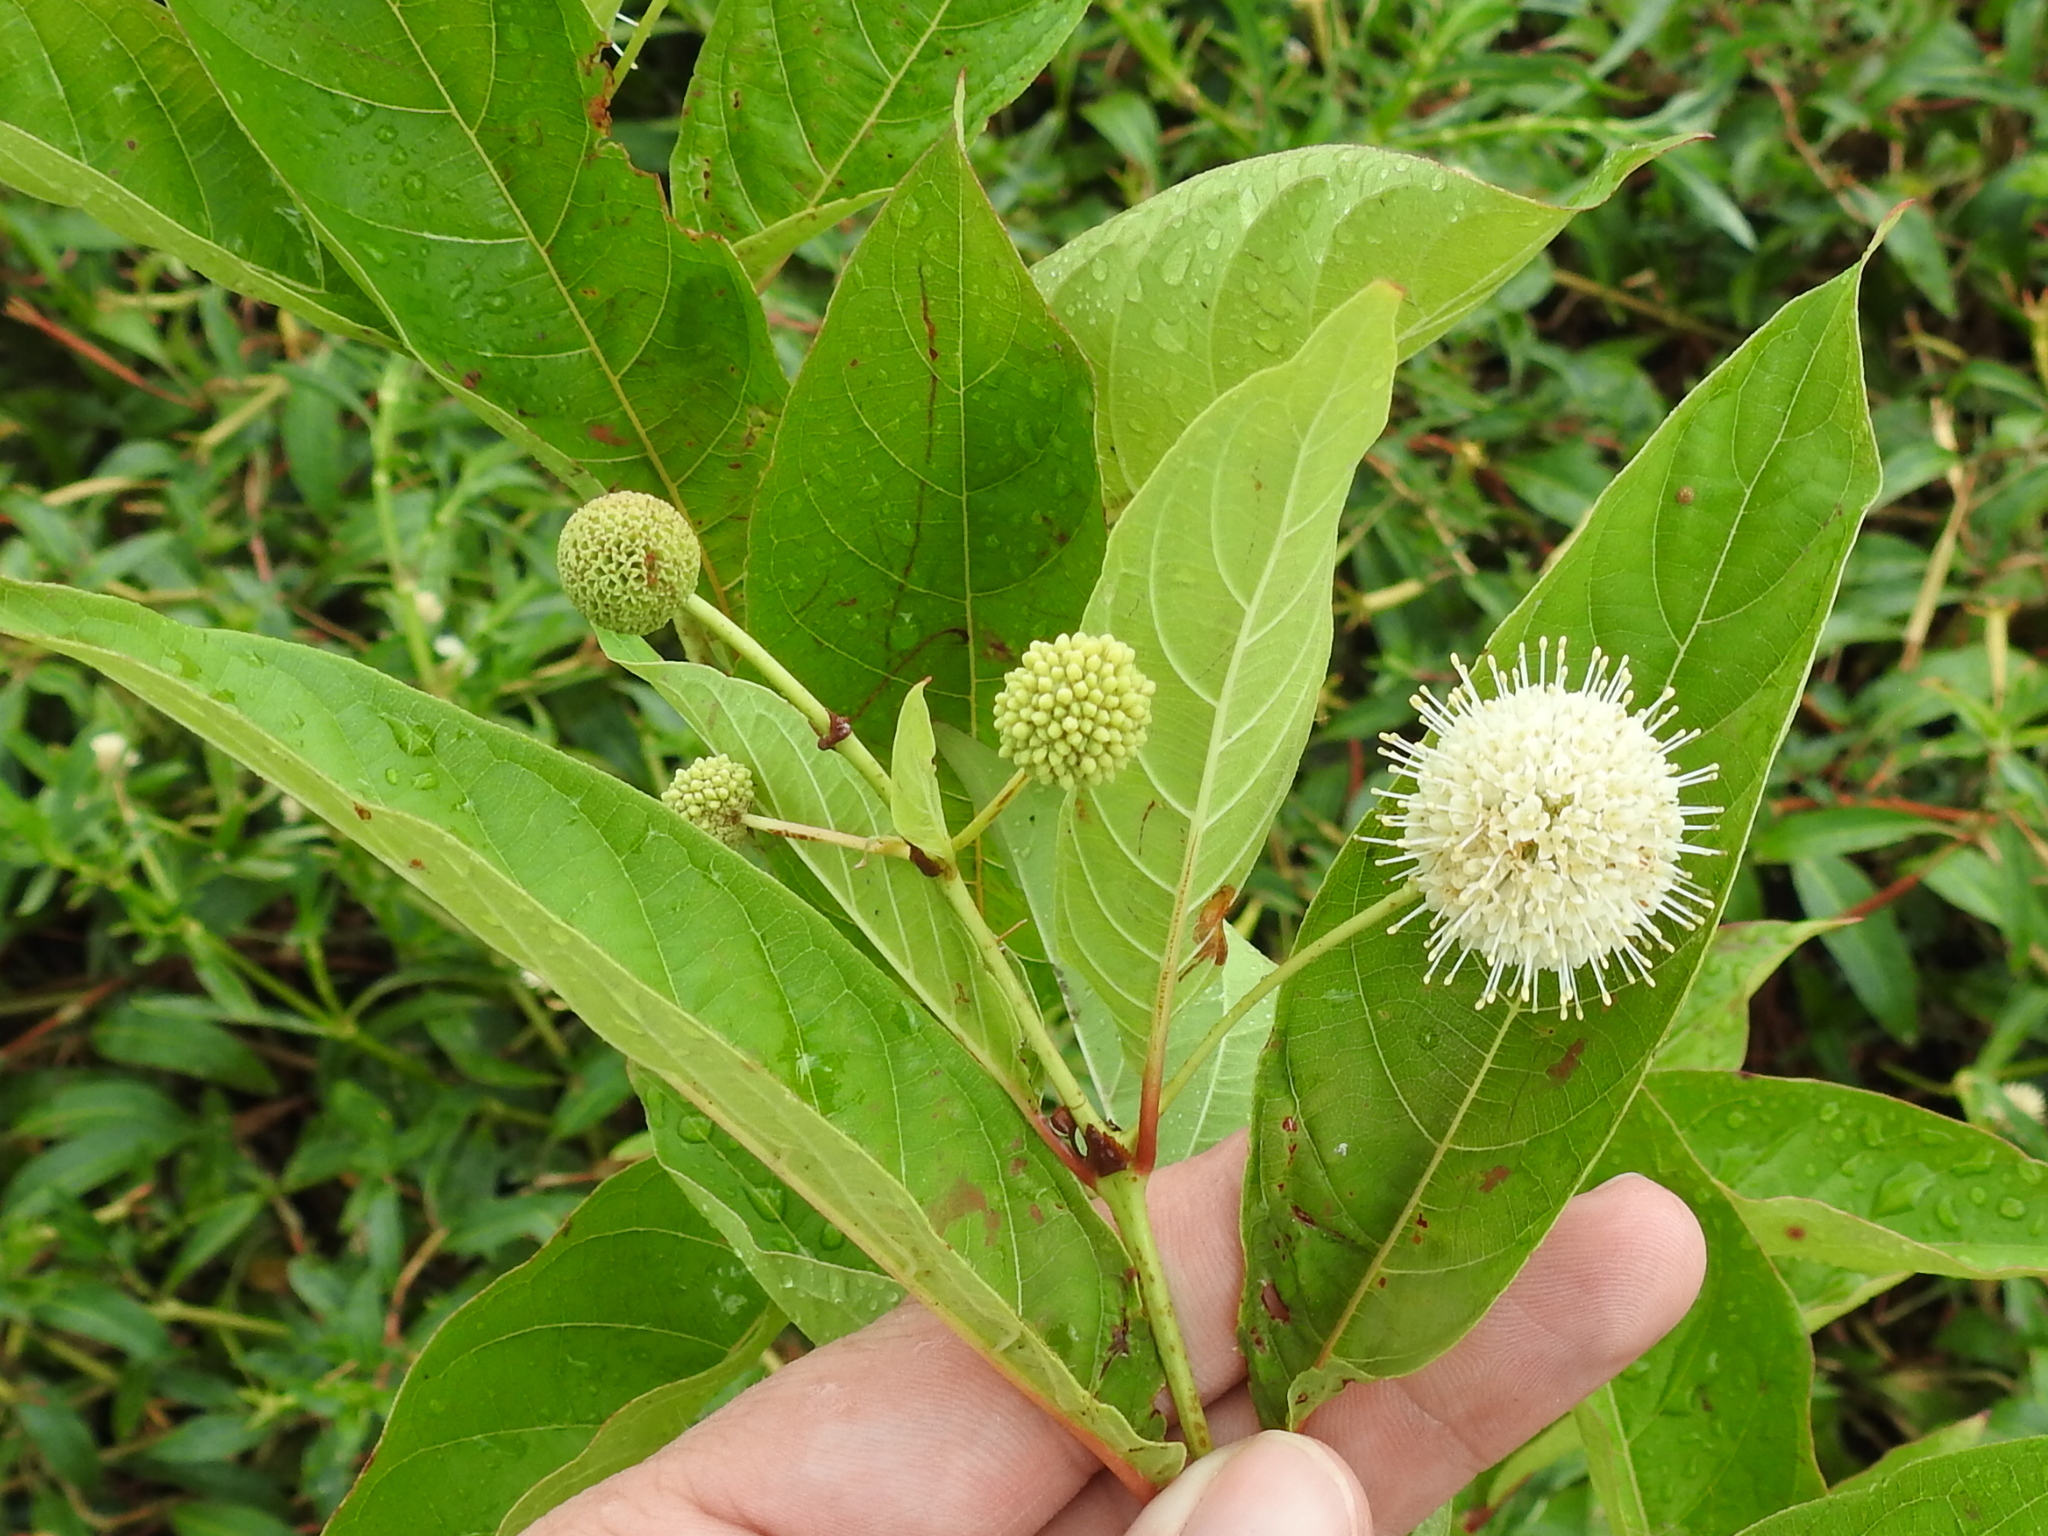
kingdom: Plantae
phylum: Tracheophyta
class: Magnoliopsida
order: Gentianales
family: Rubiaceae
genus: Cephalanthus
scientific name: Cephalanthus occidentalis
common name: Button-willow
